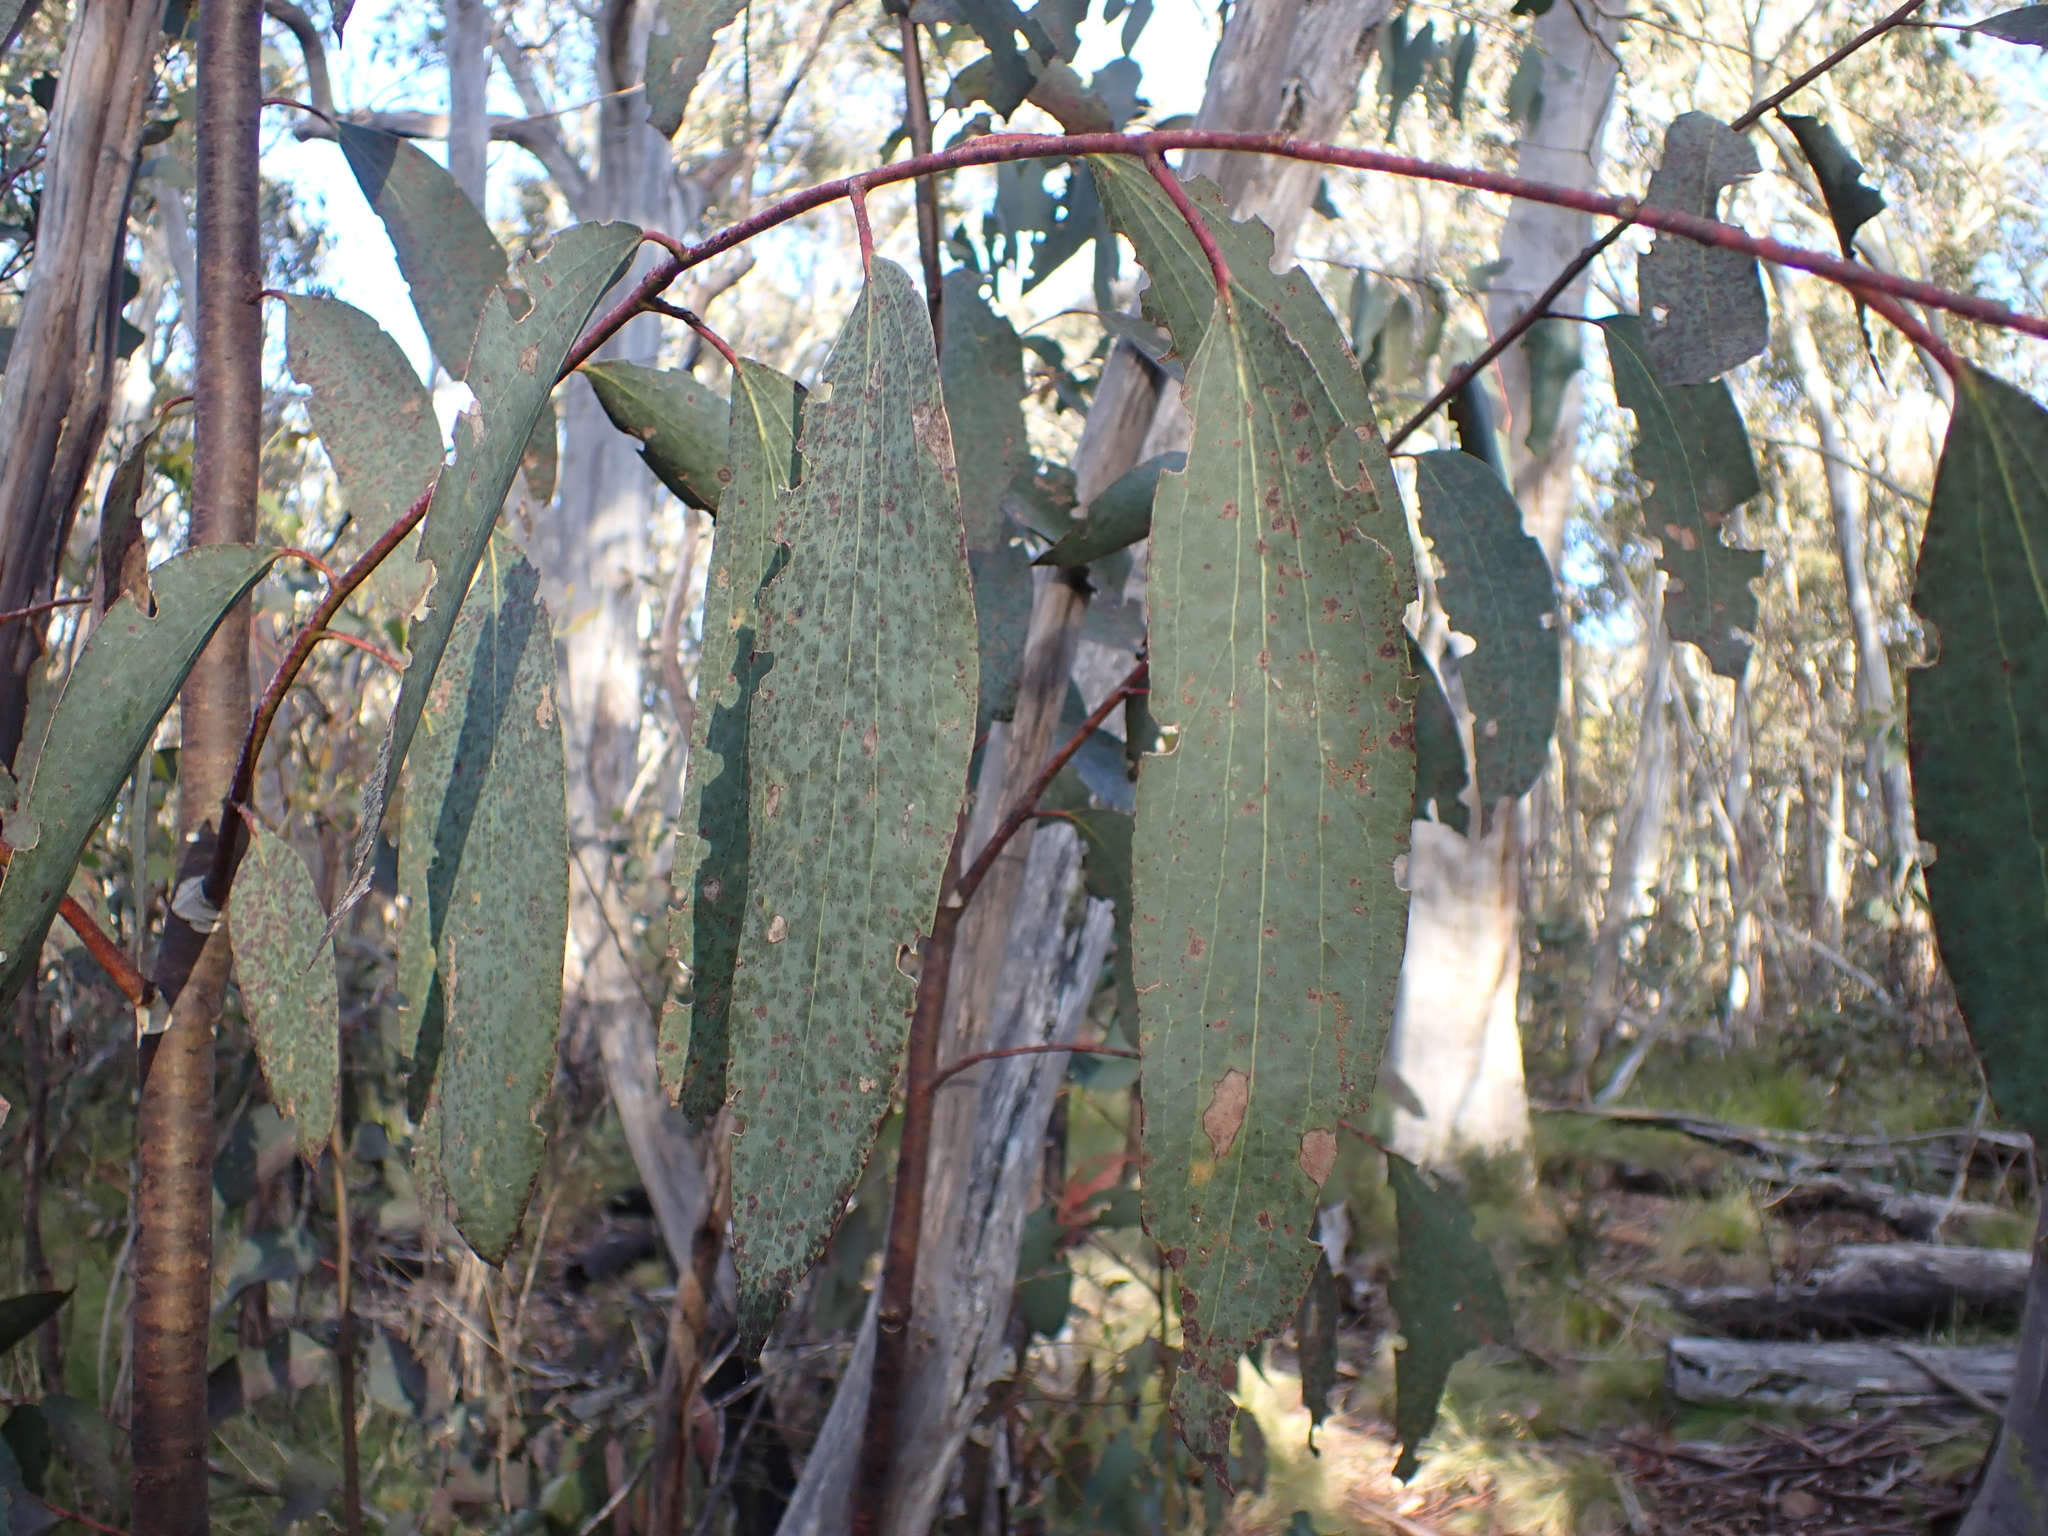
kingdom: Plantae
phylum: Tracheophyta
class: Magnoliopsida
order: Myrtales
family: Myrtaceae
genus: Eucalyptus
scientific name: Eucalyptus pauciflora
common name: Snow gum
